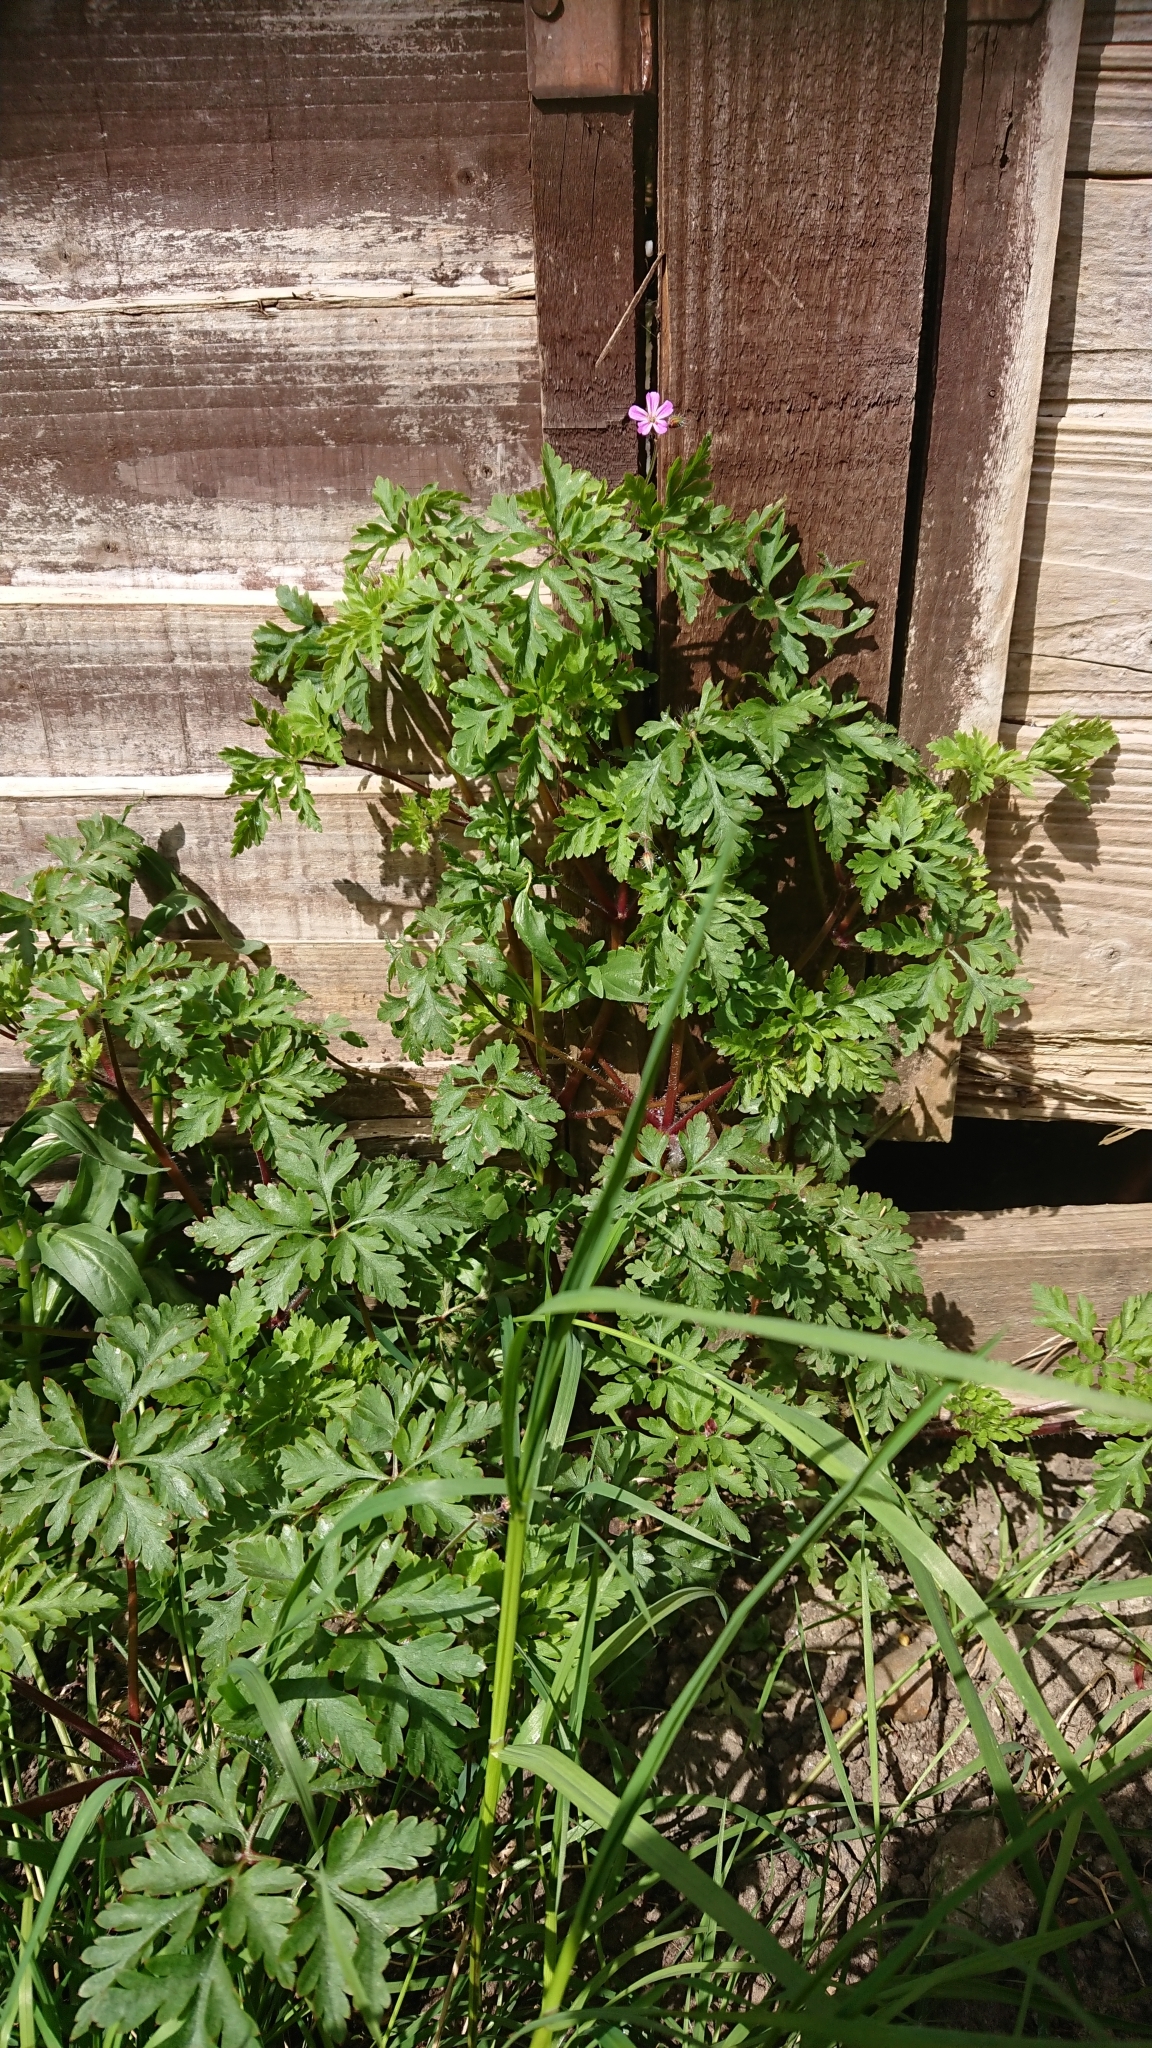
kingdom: Plantae
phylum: Tracheophyta
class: Magnoliopsida
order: Geraniales
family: Geraniaceae
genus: Geranium
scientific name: Geranium robertianum
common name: Herb-robert
